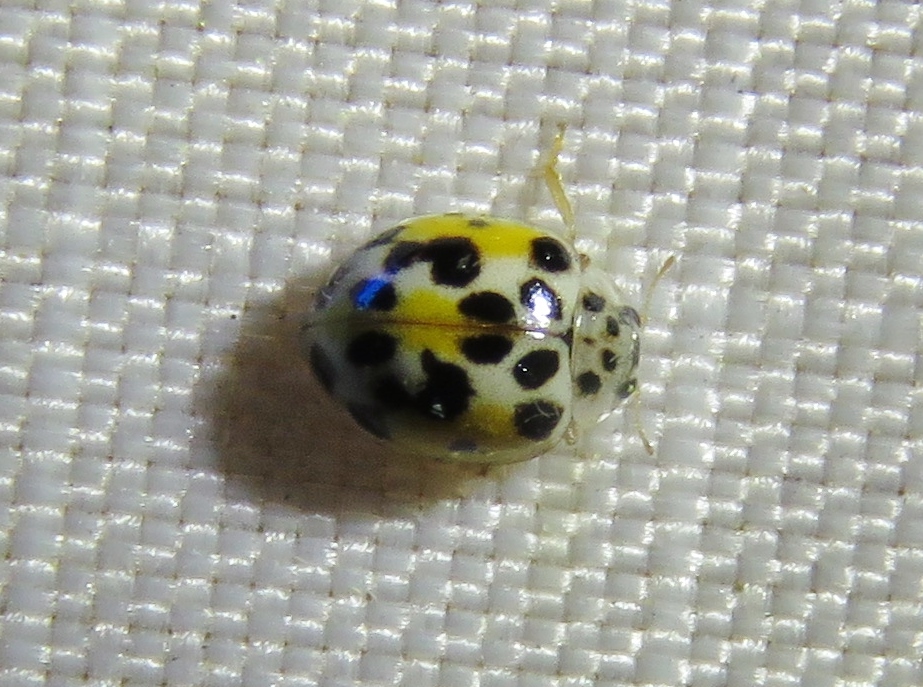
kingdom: Animalia
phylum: Arthropoda
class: Insecta
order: Coleoptera
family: Coccinellidae
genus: Psyllobora
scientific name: Psyllobora vigintimaculata
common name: Ladybird beetle
